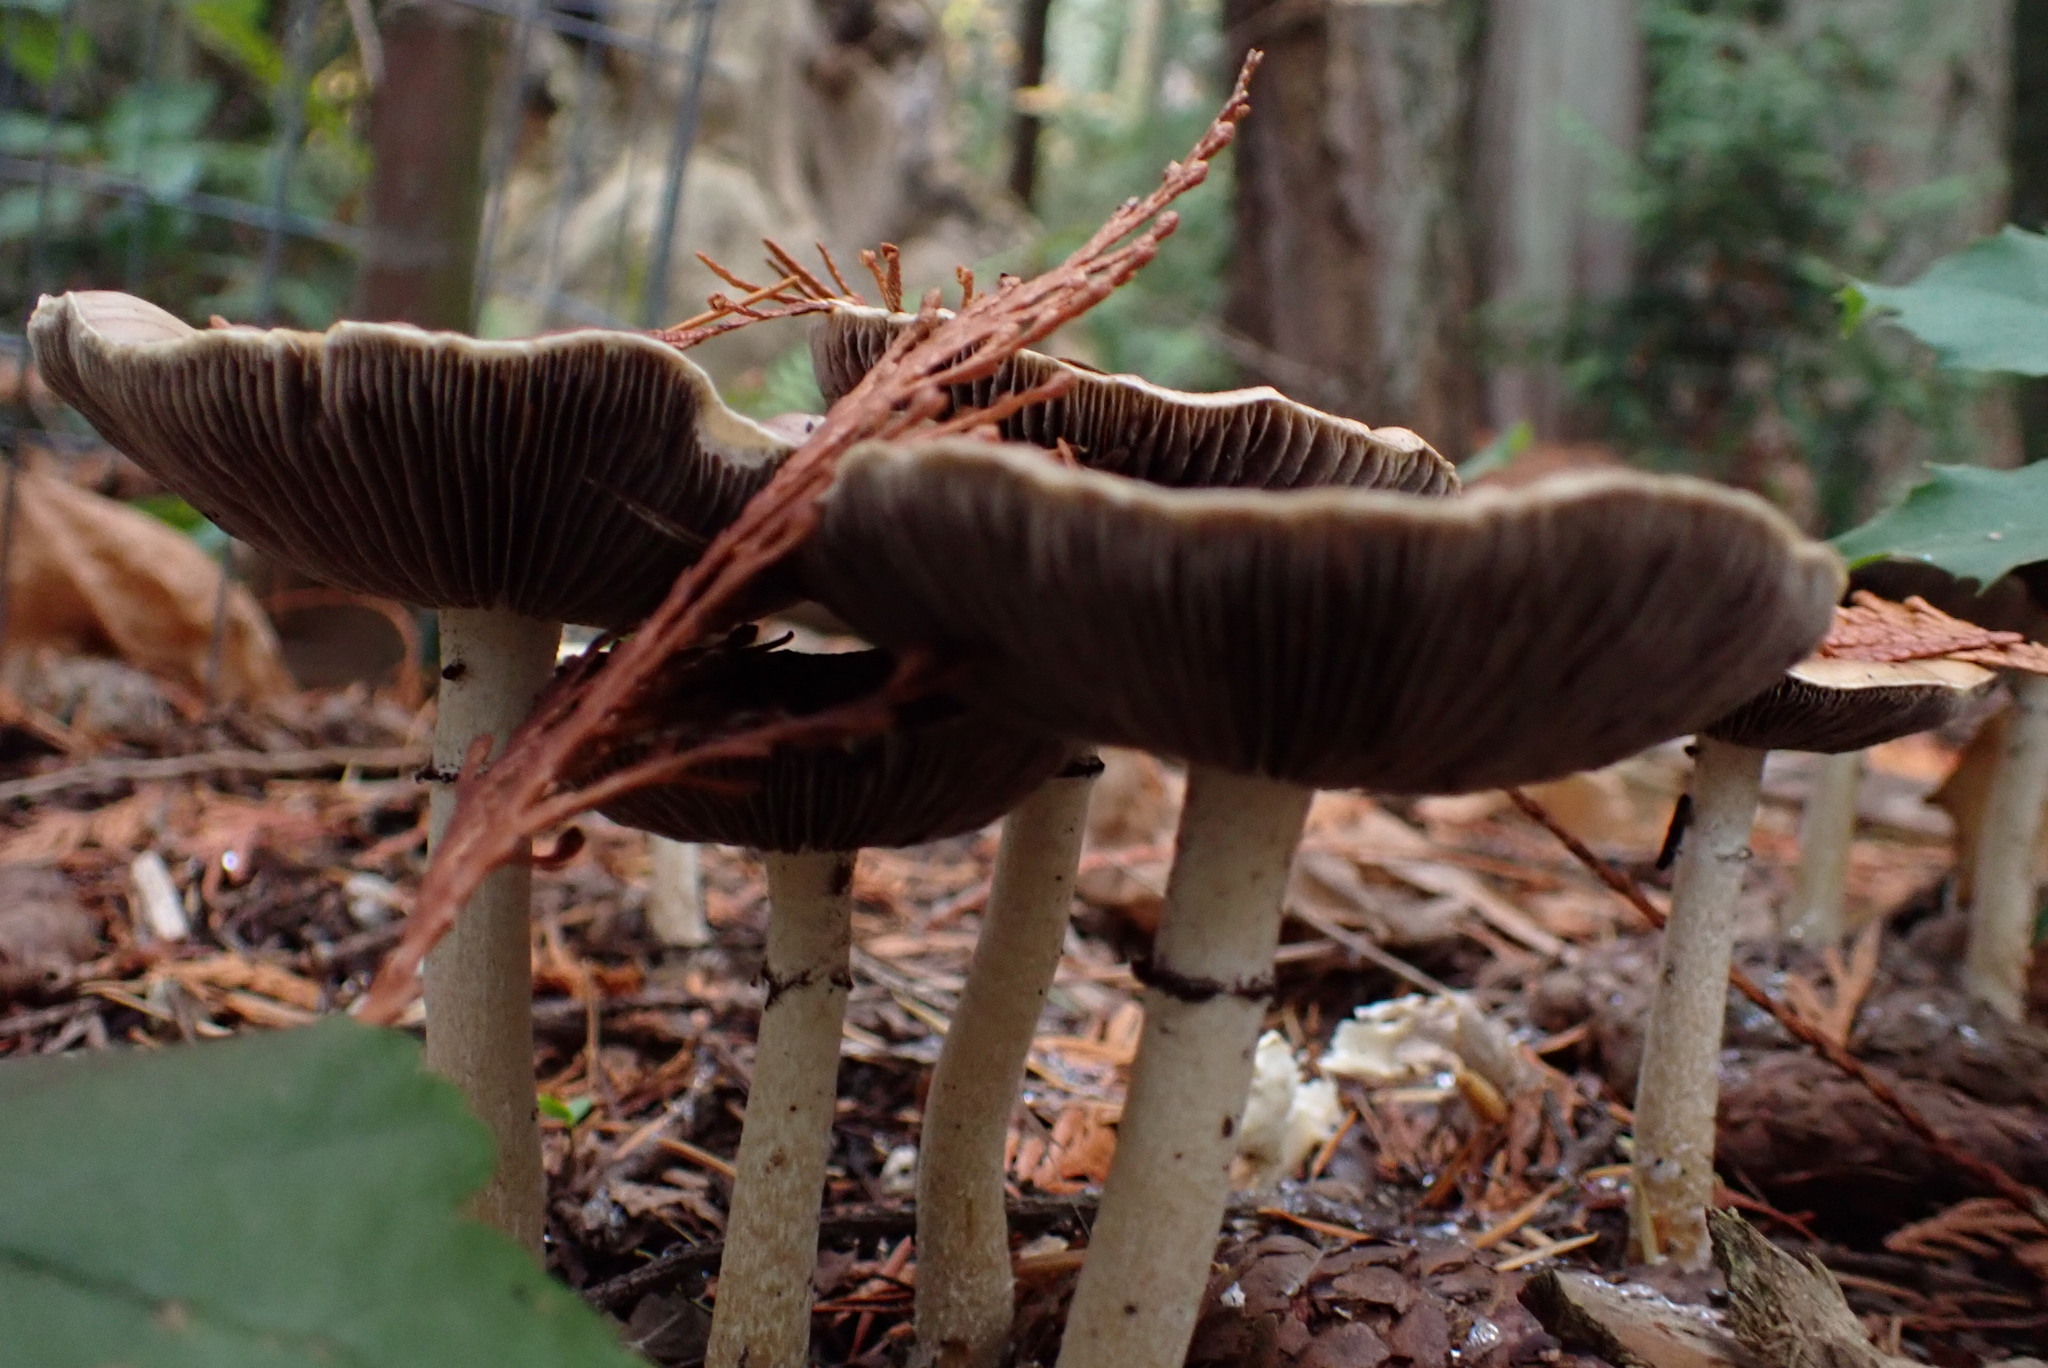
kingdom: Fungi
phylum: Basidiomycota
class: Agaricomycetes
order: Agaricales
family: Strophariaceae
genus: Stropharia
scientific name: Stropharia ambigua
